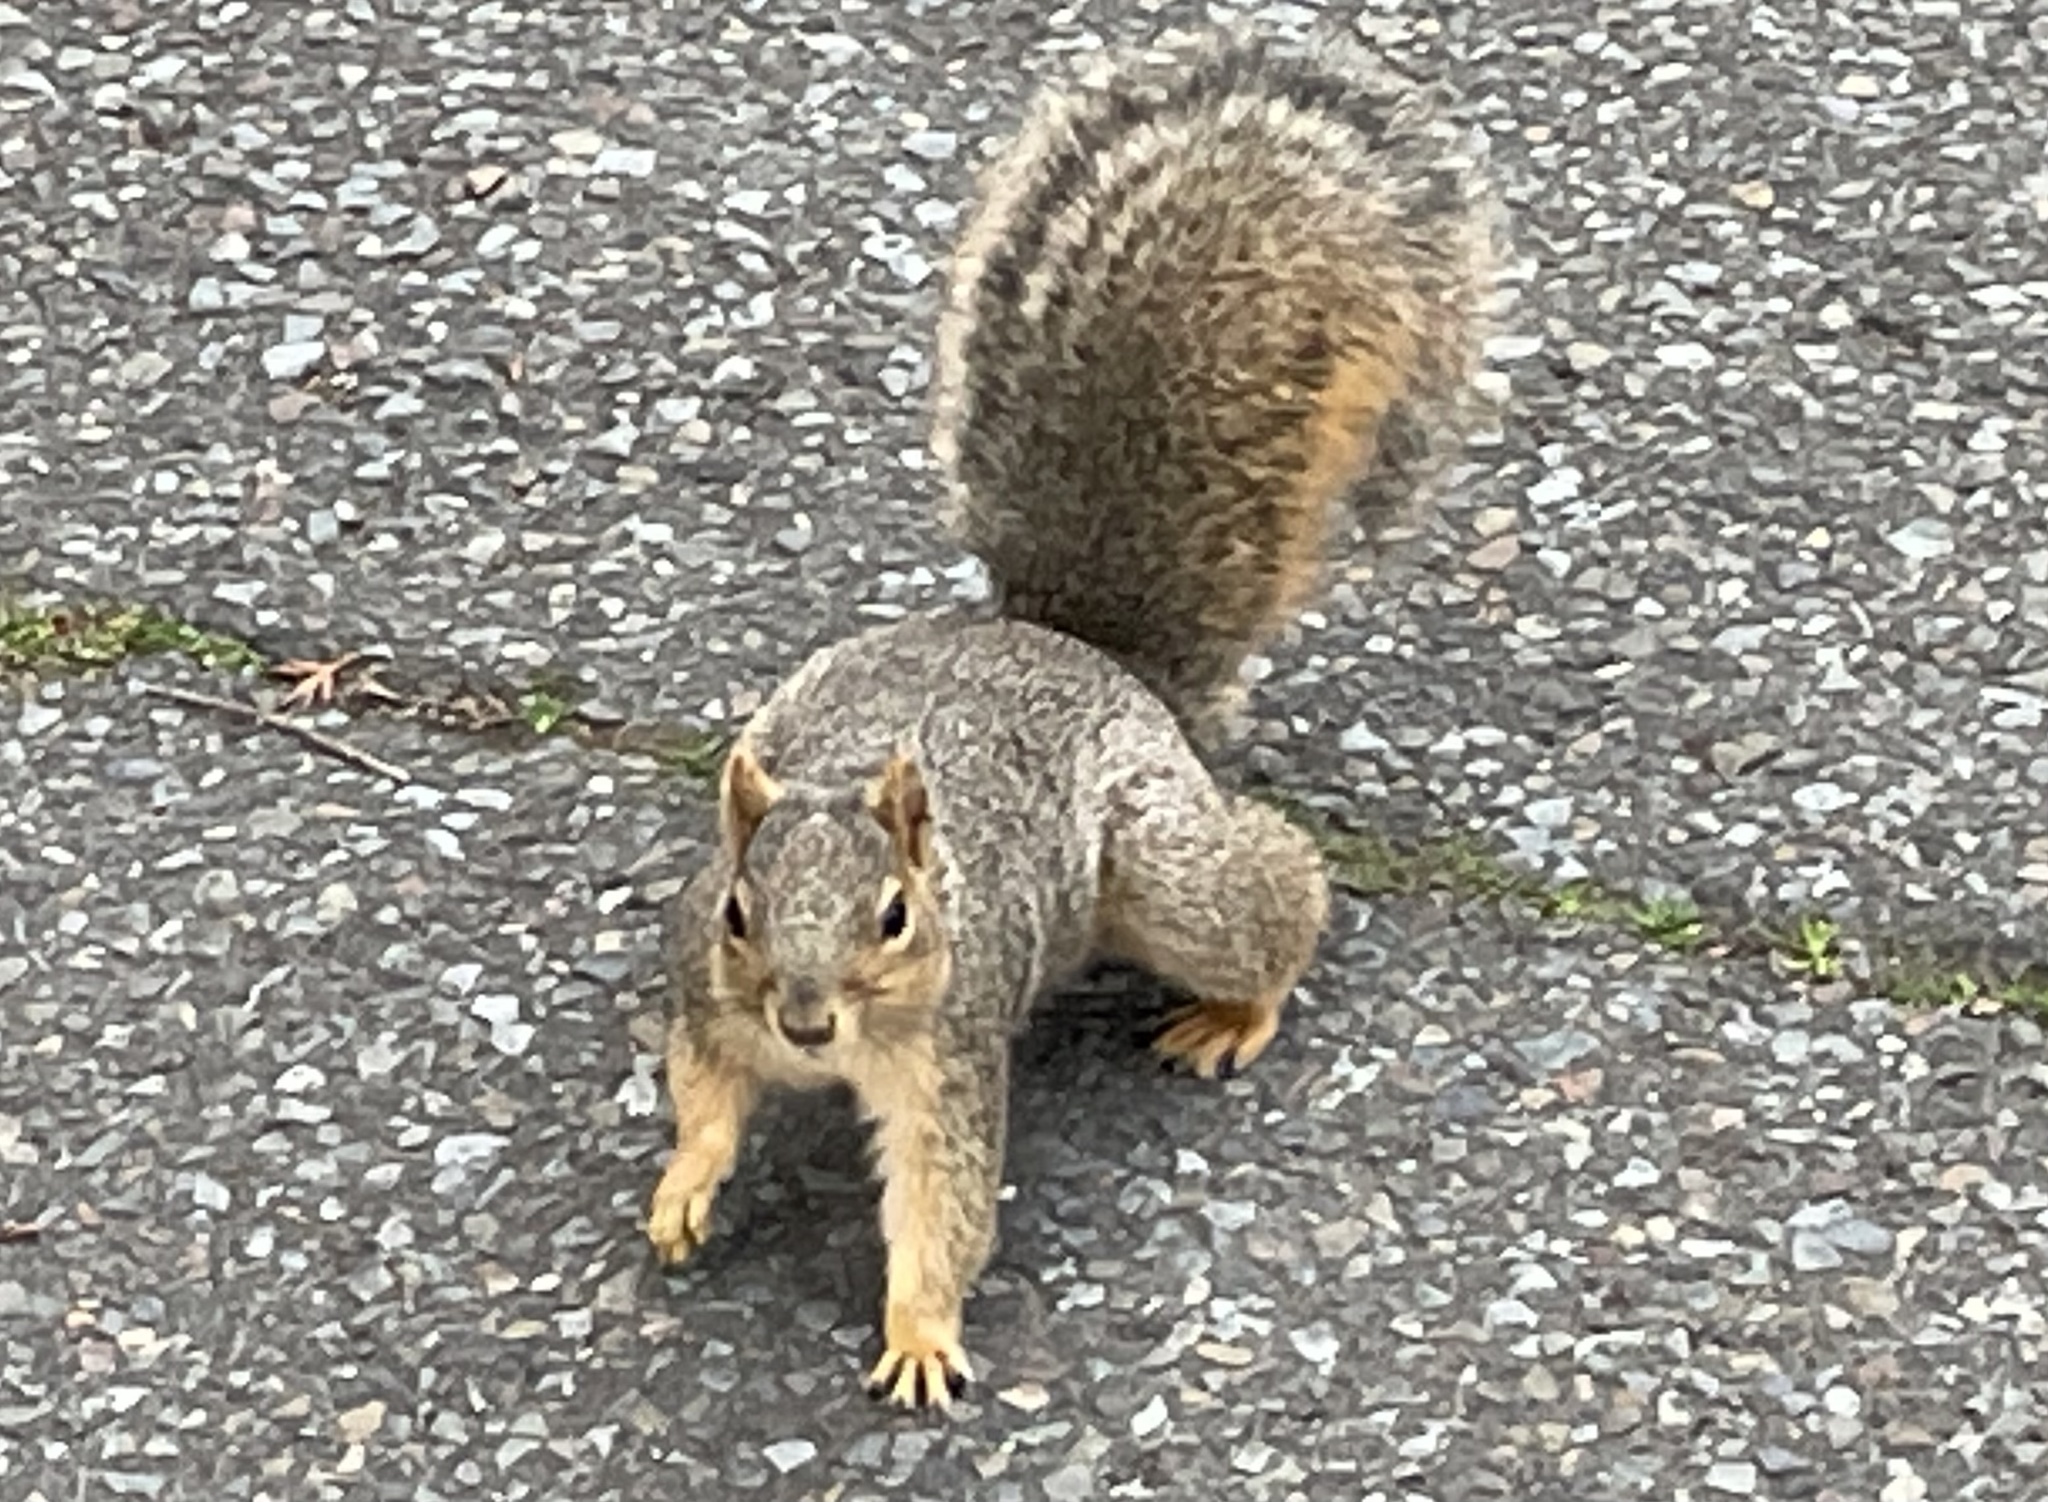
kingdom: Animalia
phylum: Chordata
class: Mammalia
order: Rodentia
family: Sciuridae
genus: Sciurus
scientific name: Sciurus niger
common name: Fox squirrel
